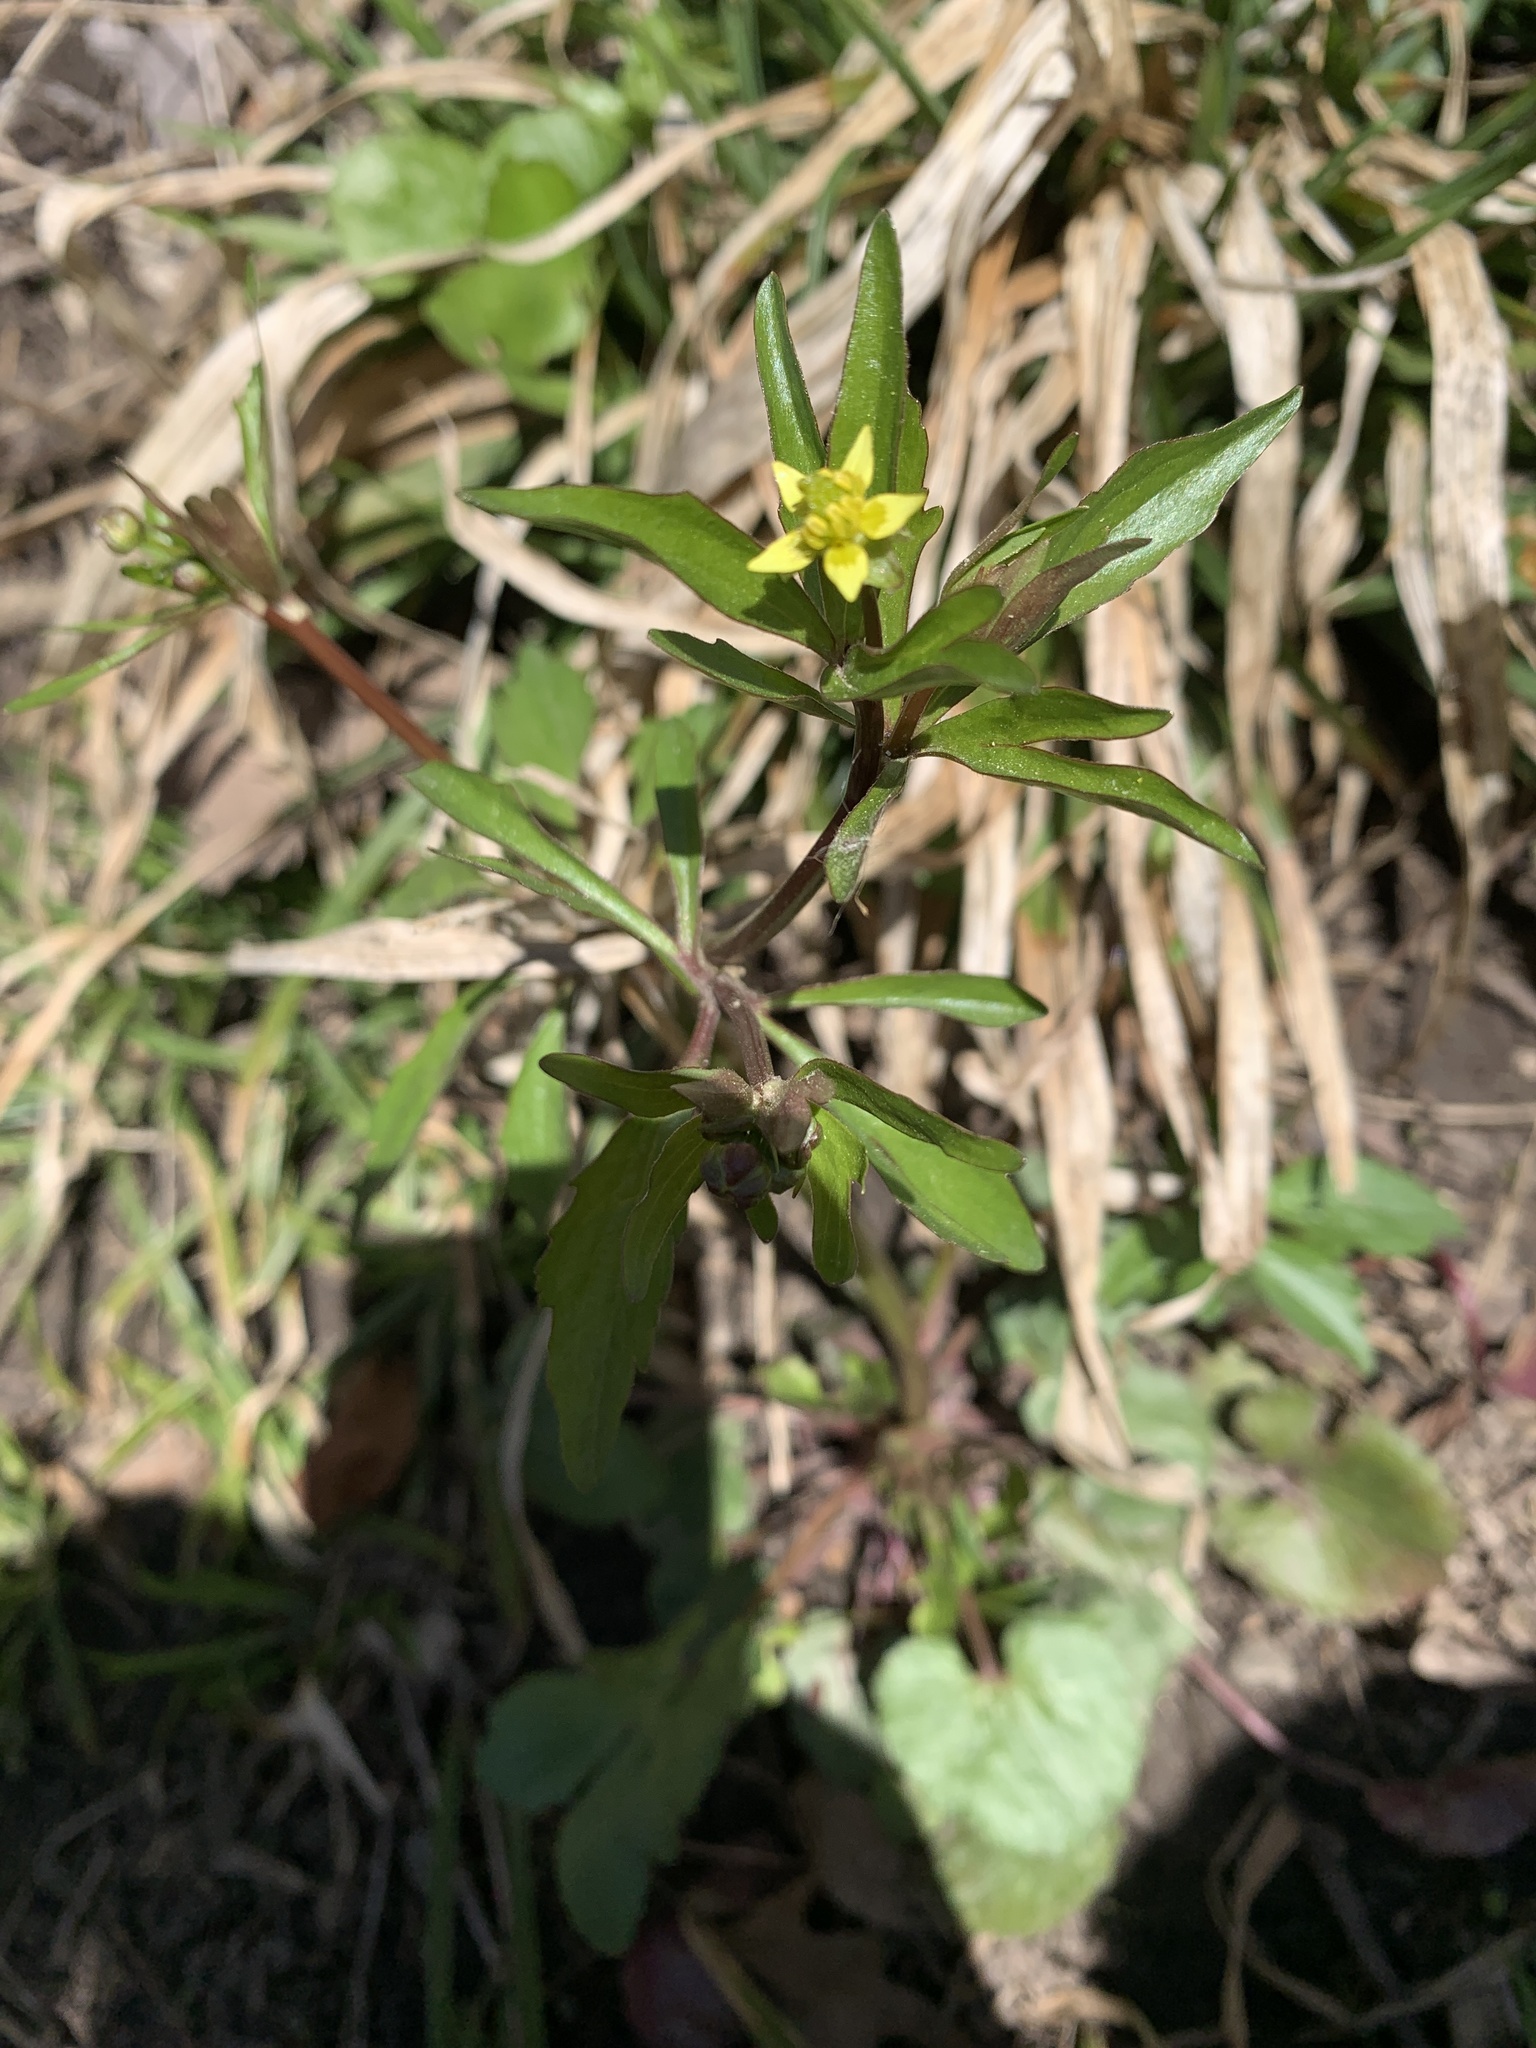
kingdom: Plantae
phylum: Tracheophyta
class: Magnoliopsida
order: Ranunculales
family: Ranunculaceae
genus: Ranunculus
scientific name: Ranunculus abortivus
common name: Early wood buttercup
